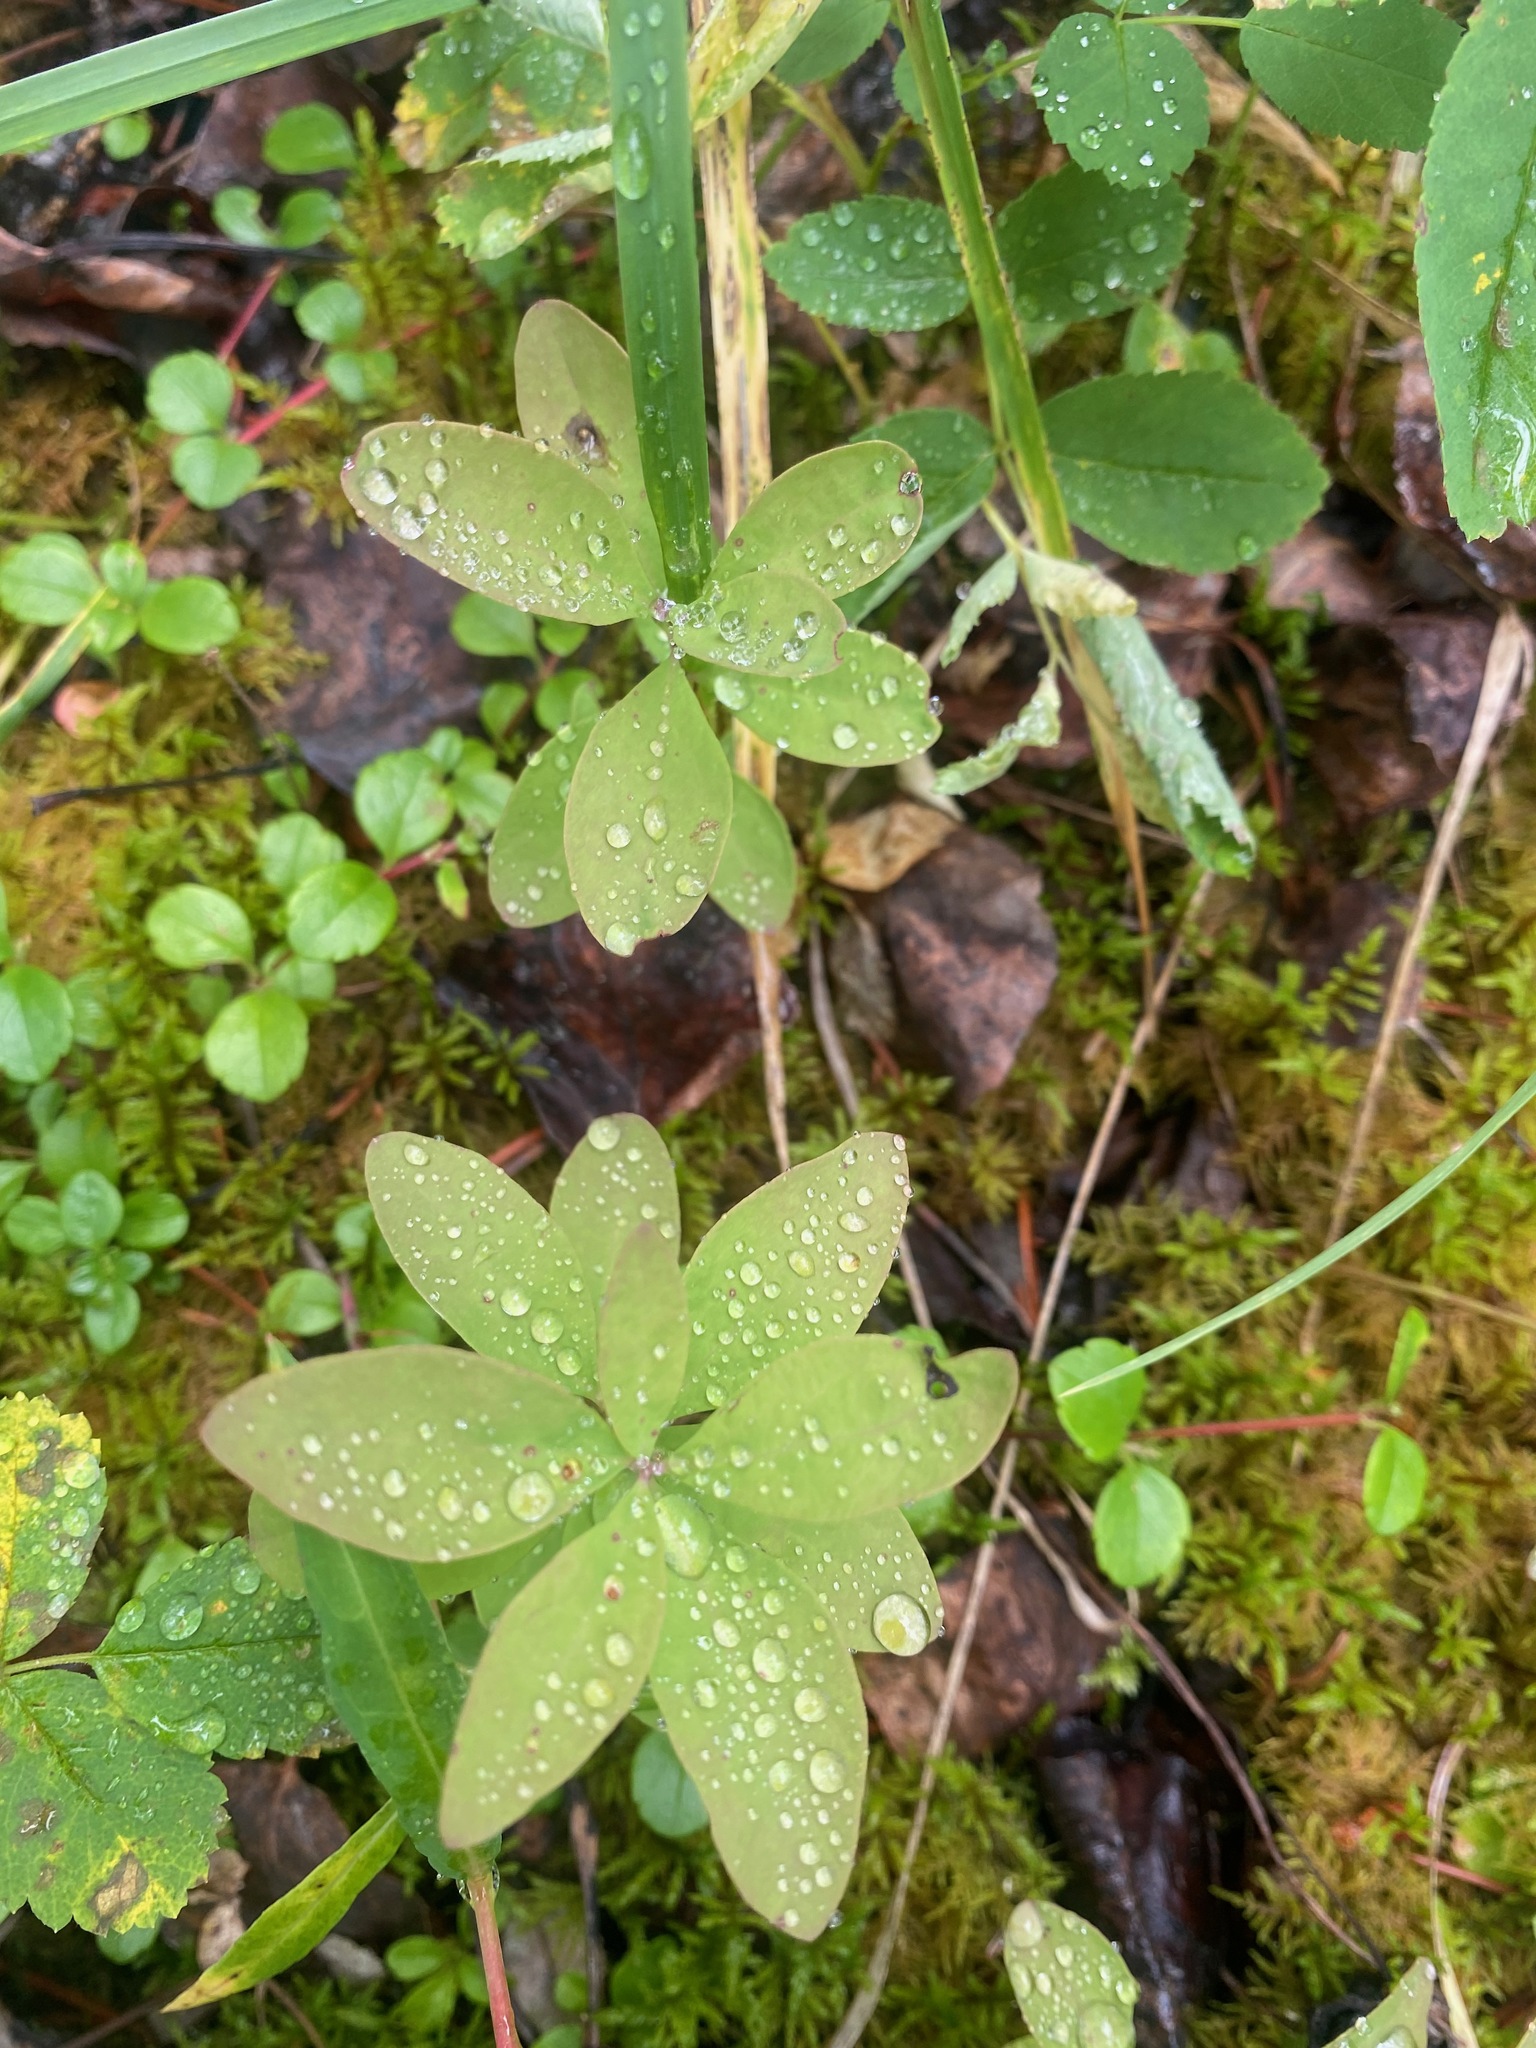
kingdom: Plantae
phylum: Tracheophyta
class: Magnoliopsida
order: Santalales
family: Comandraceae
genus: Geocaulon
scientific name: Geocaulon lividum
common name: Earthberry
